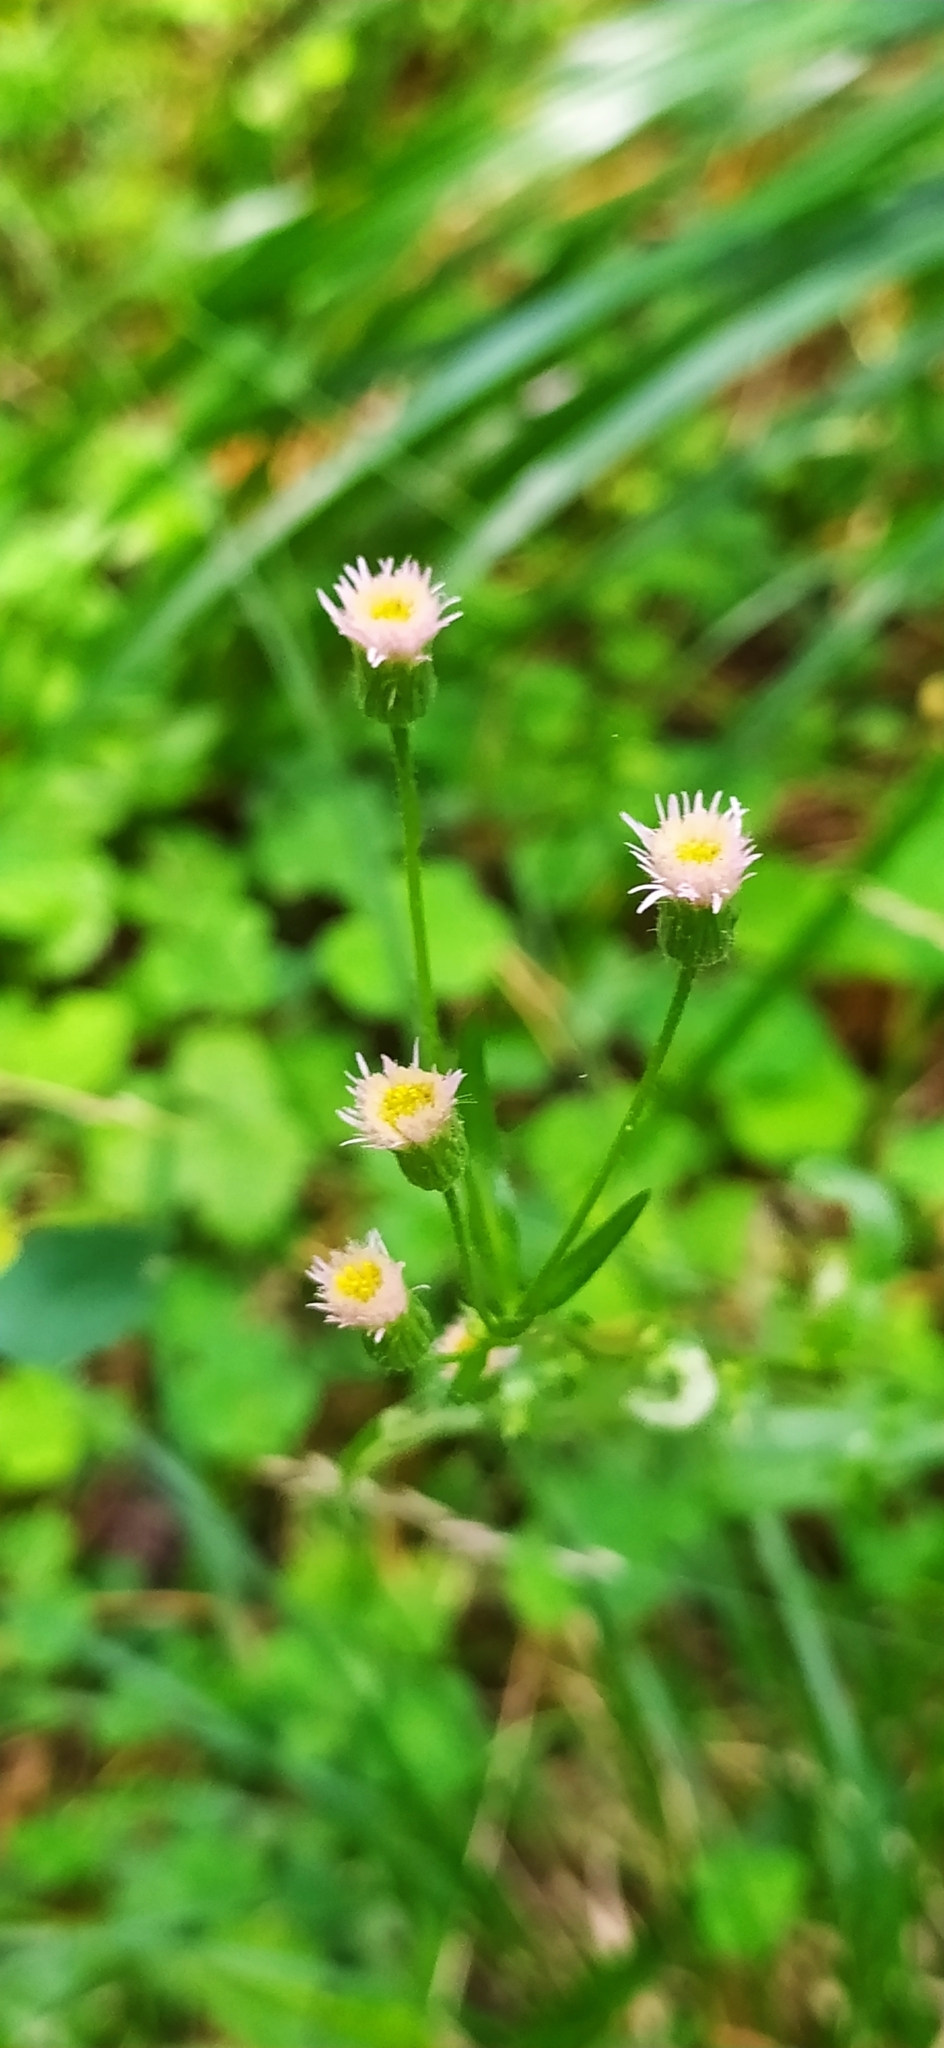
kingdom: Plantae
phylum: Tracheophyta
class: Magnoliopsida
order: Asterales
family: Asteraceae
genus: Erigeron
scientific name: Erigeron acris
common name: Blue fleabane
